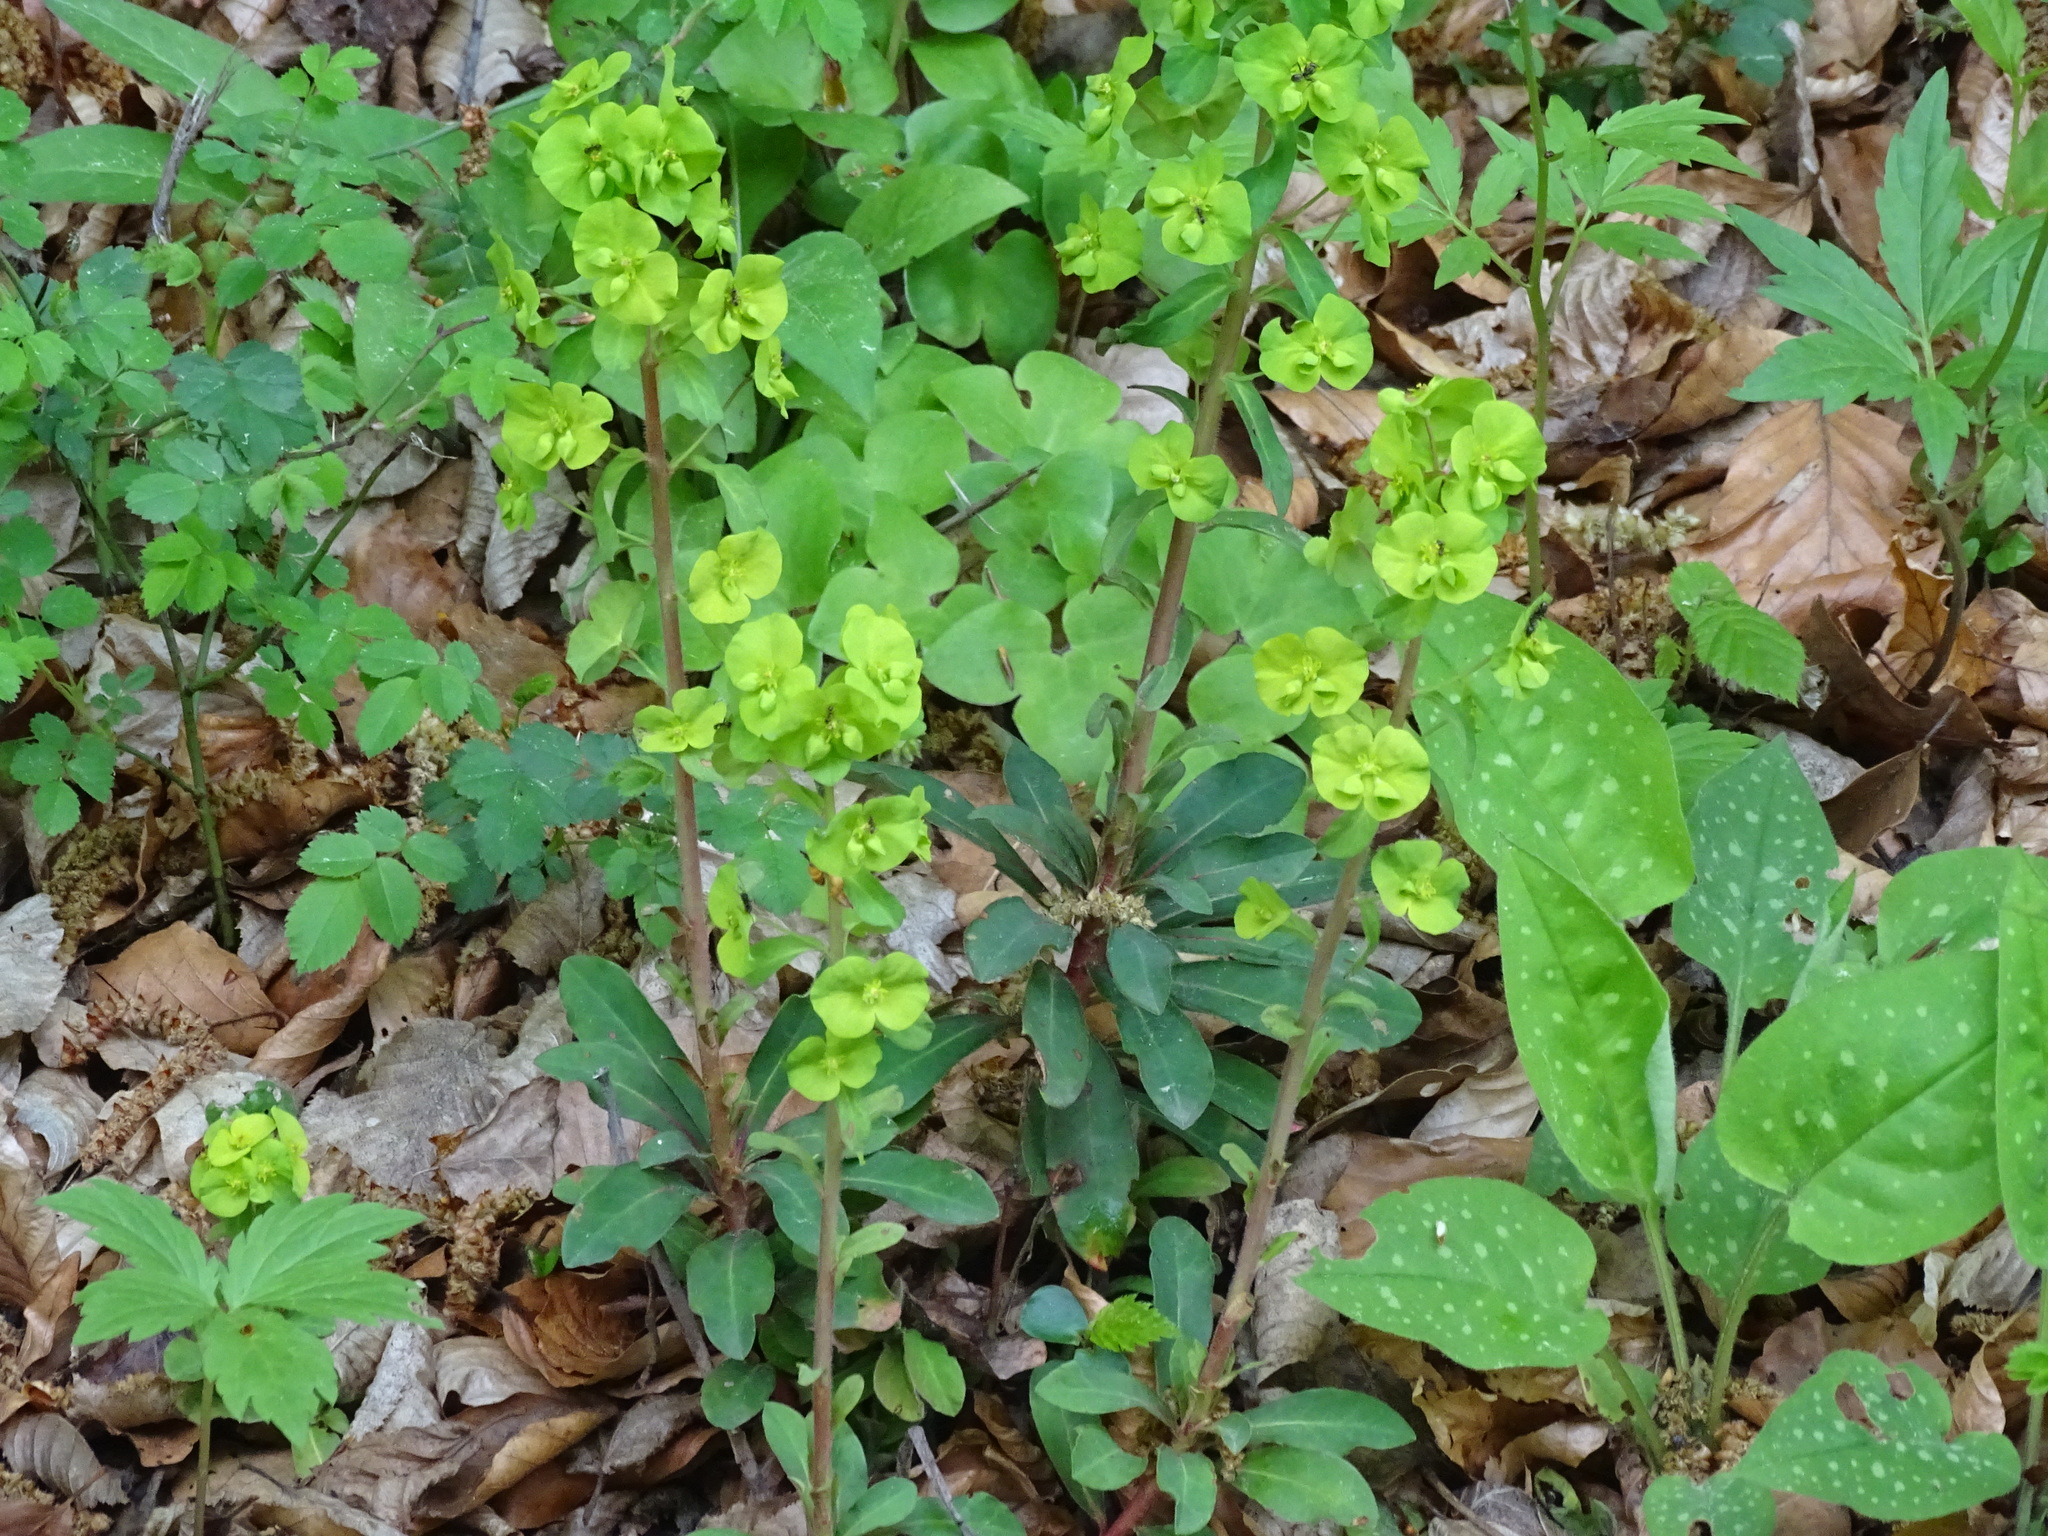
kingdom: Plantae
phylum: Tracheophyta
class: Magnoliopsida
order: Malpighiales
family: Euphorbiaceae
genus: Euphorbia
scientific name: Euphorbia amygdaloides
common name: Wood spurge
